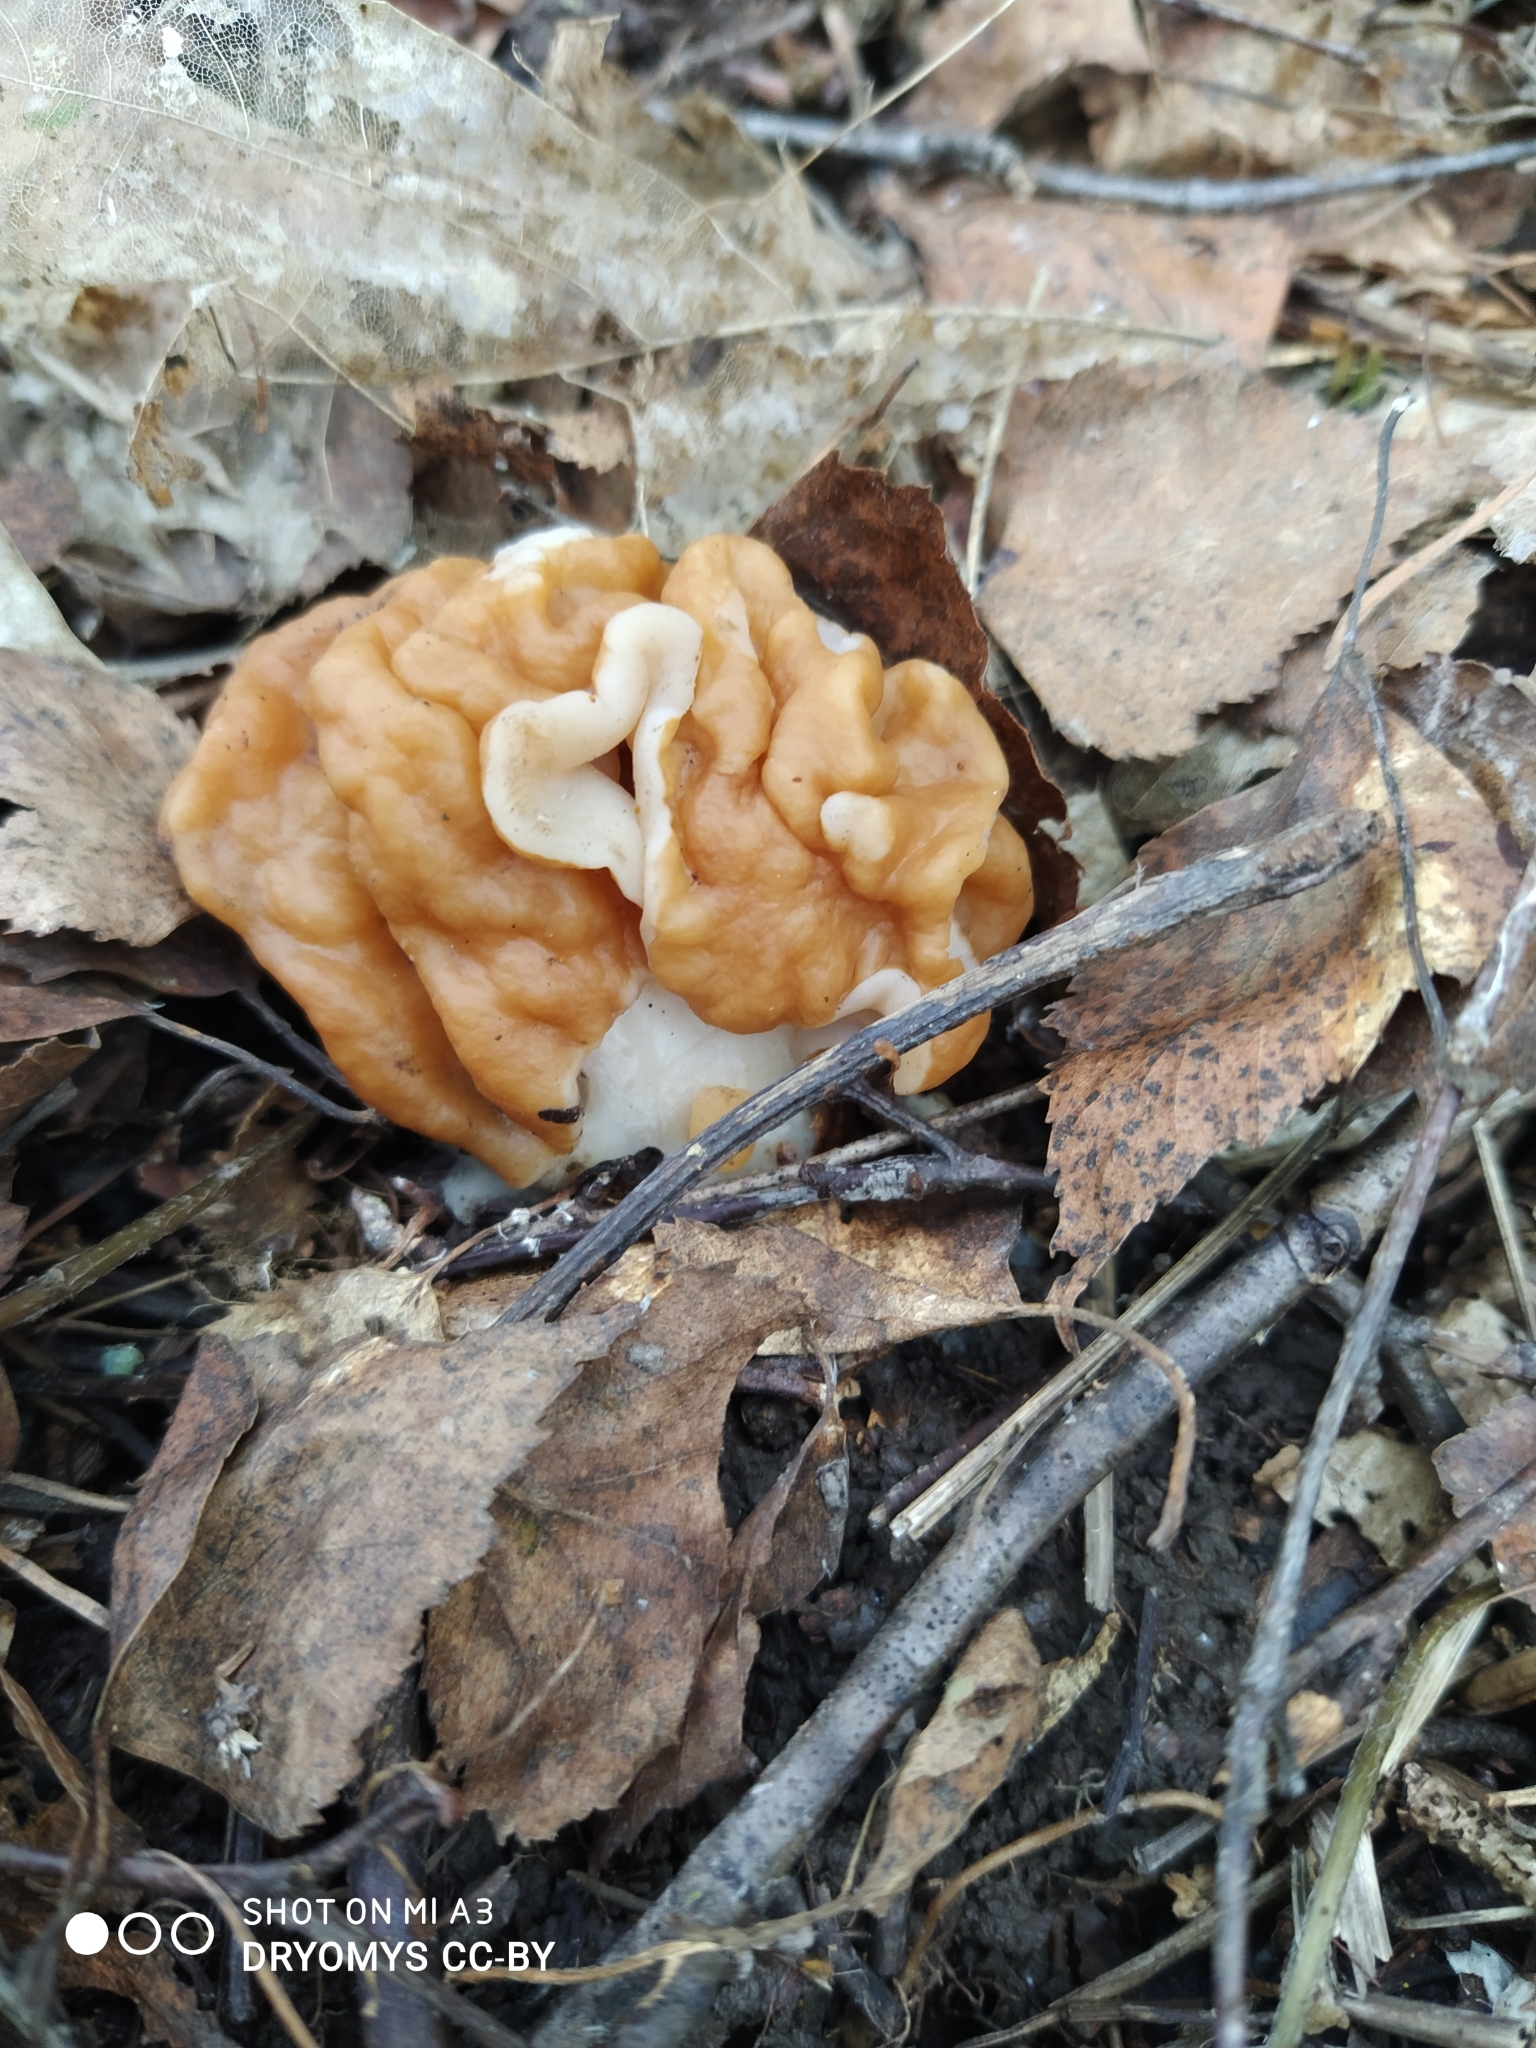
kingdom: Fungi
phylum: Ascomycota
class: Pezizomycetes
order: Pezizales
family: Discinaceae
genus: Gyromitra
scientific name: Gyromitra gigas
